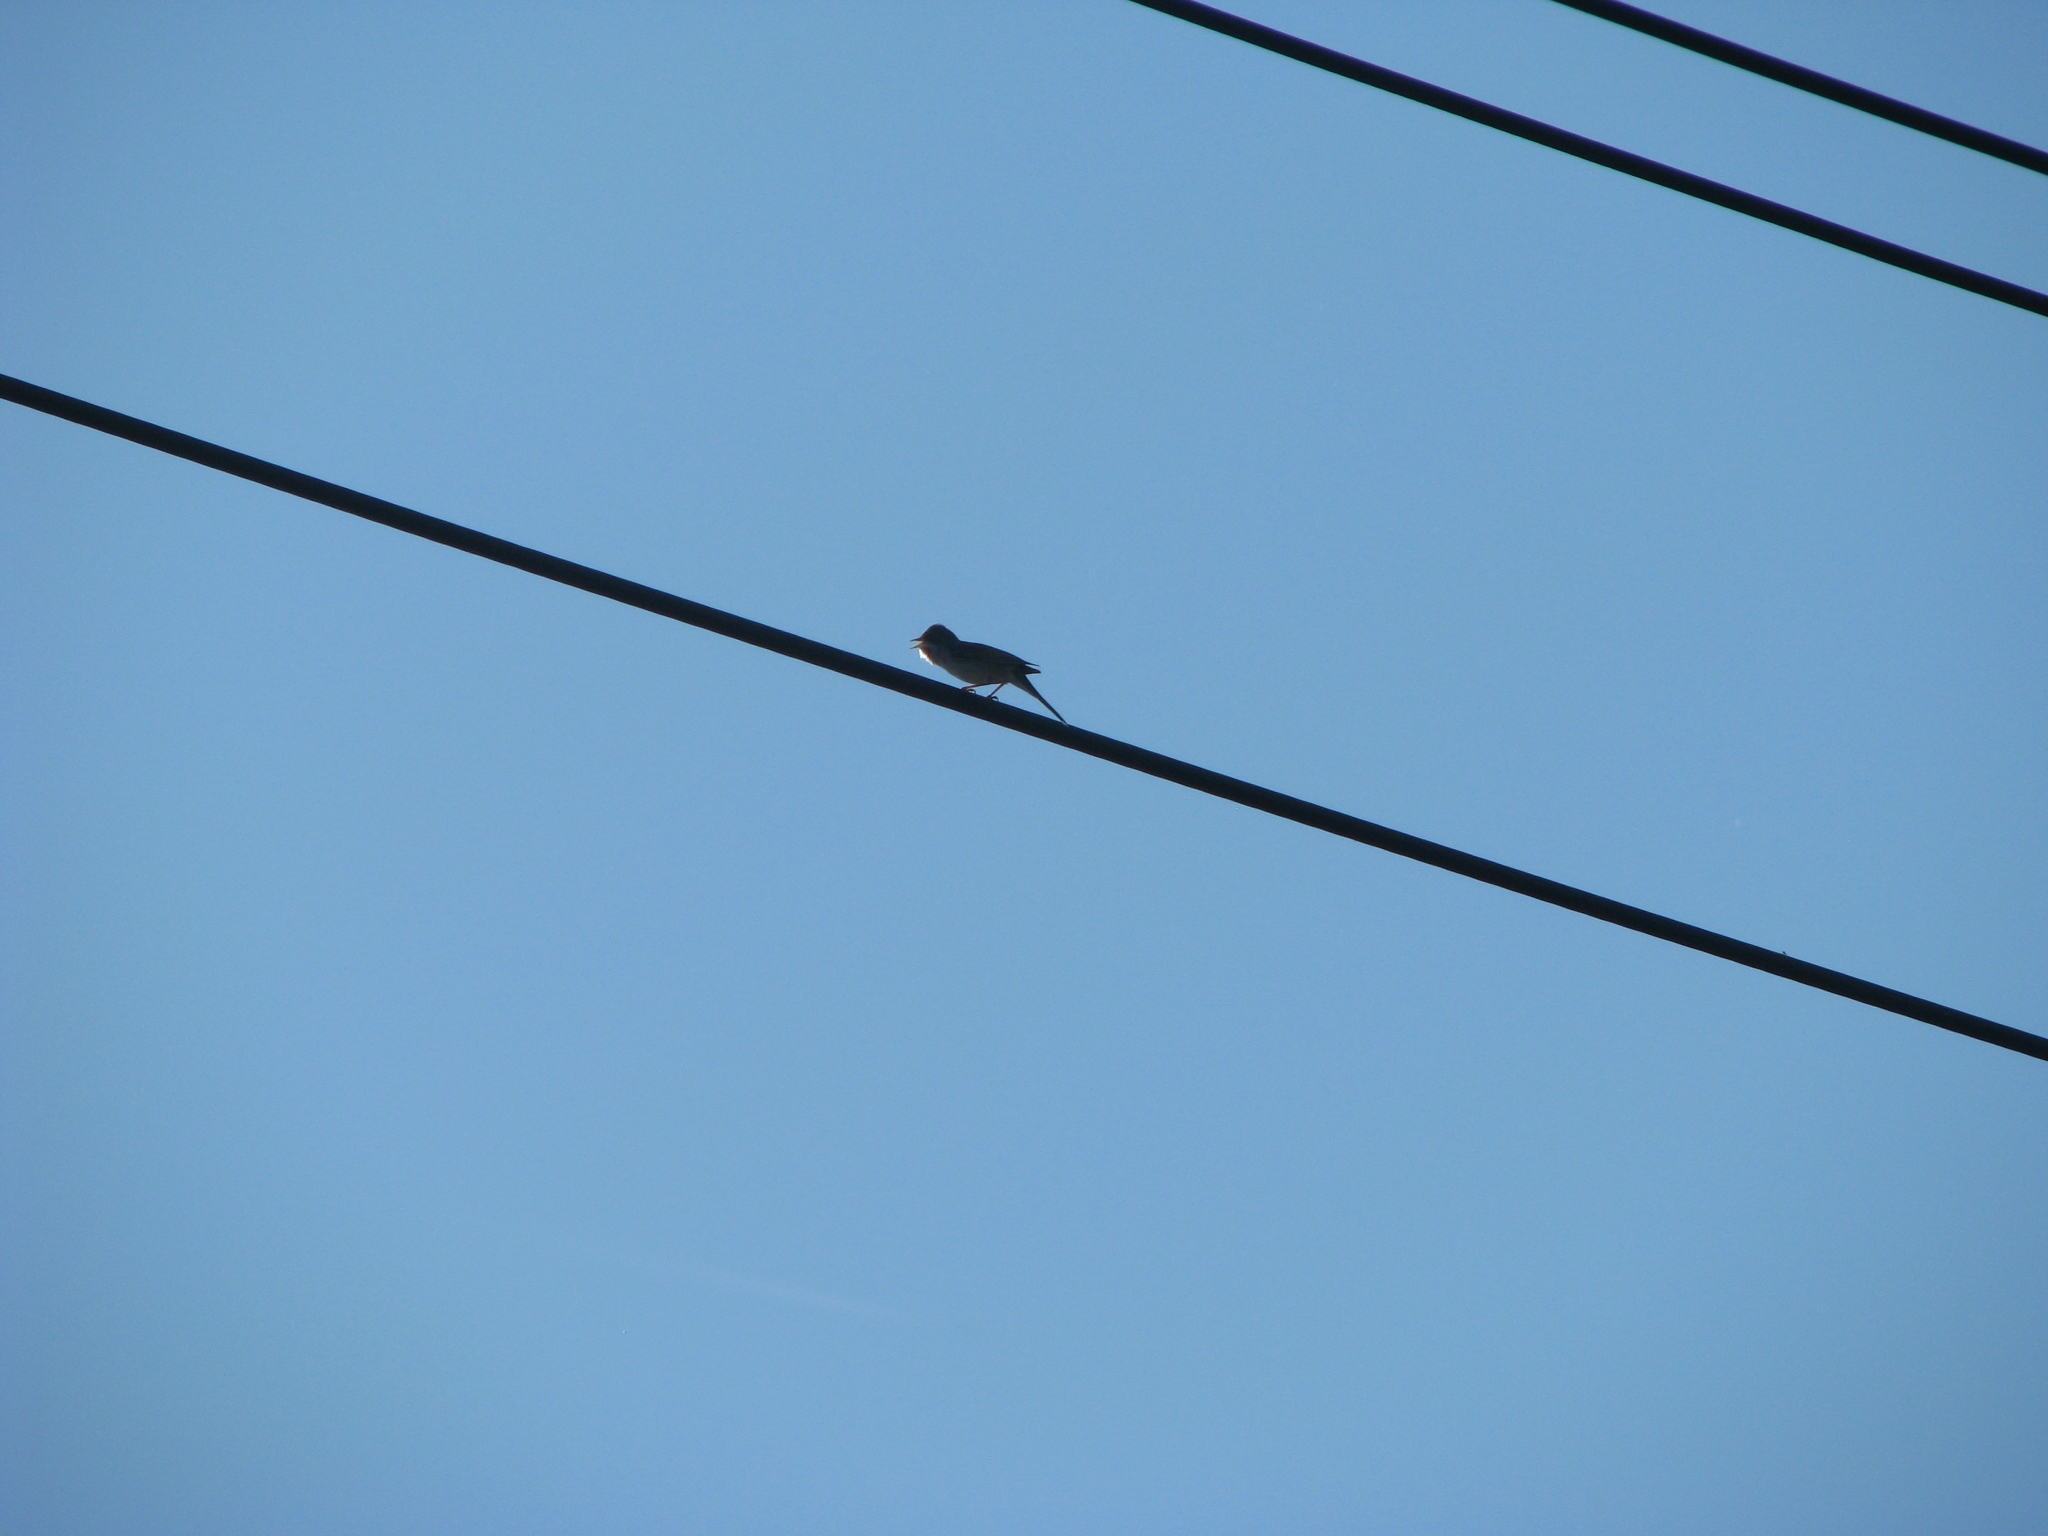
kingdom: Animalia
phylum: Chordata
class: Aves
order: Passeriformes
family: Sylviidae
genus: Sylvia
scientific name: Sylvia communis
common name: Common whitethroat
